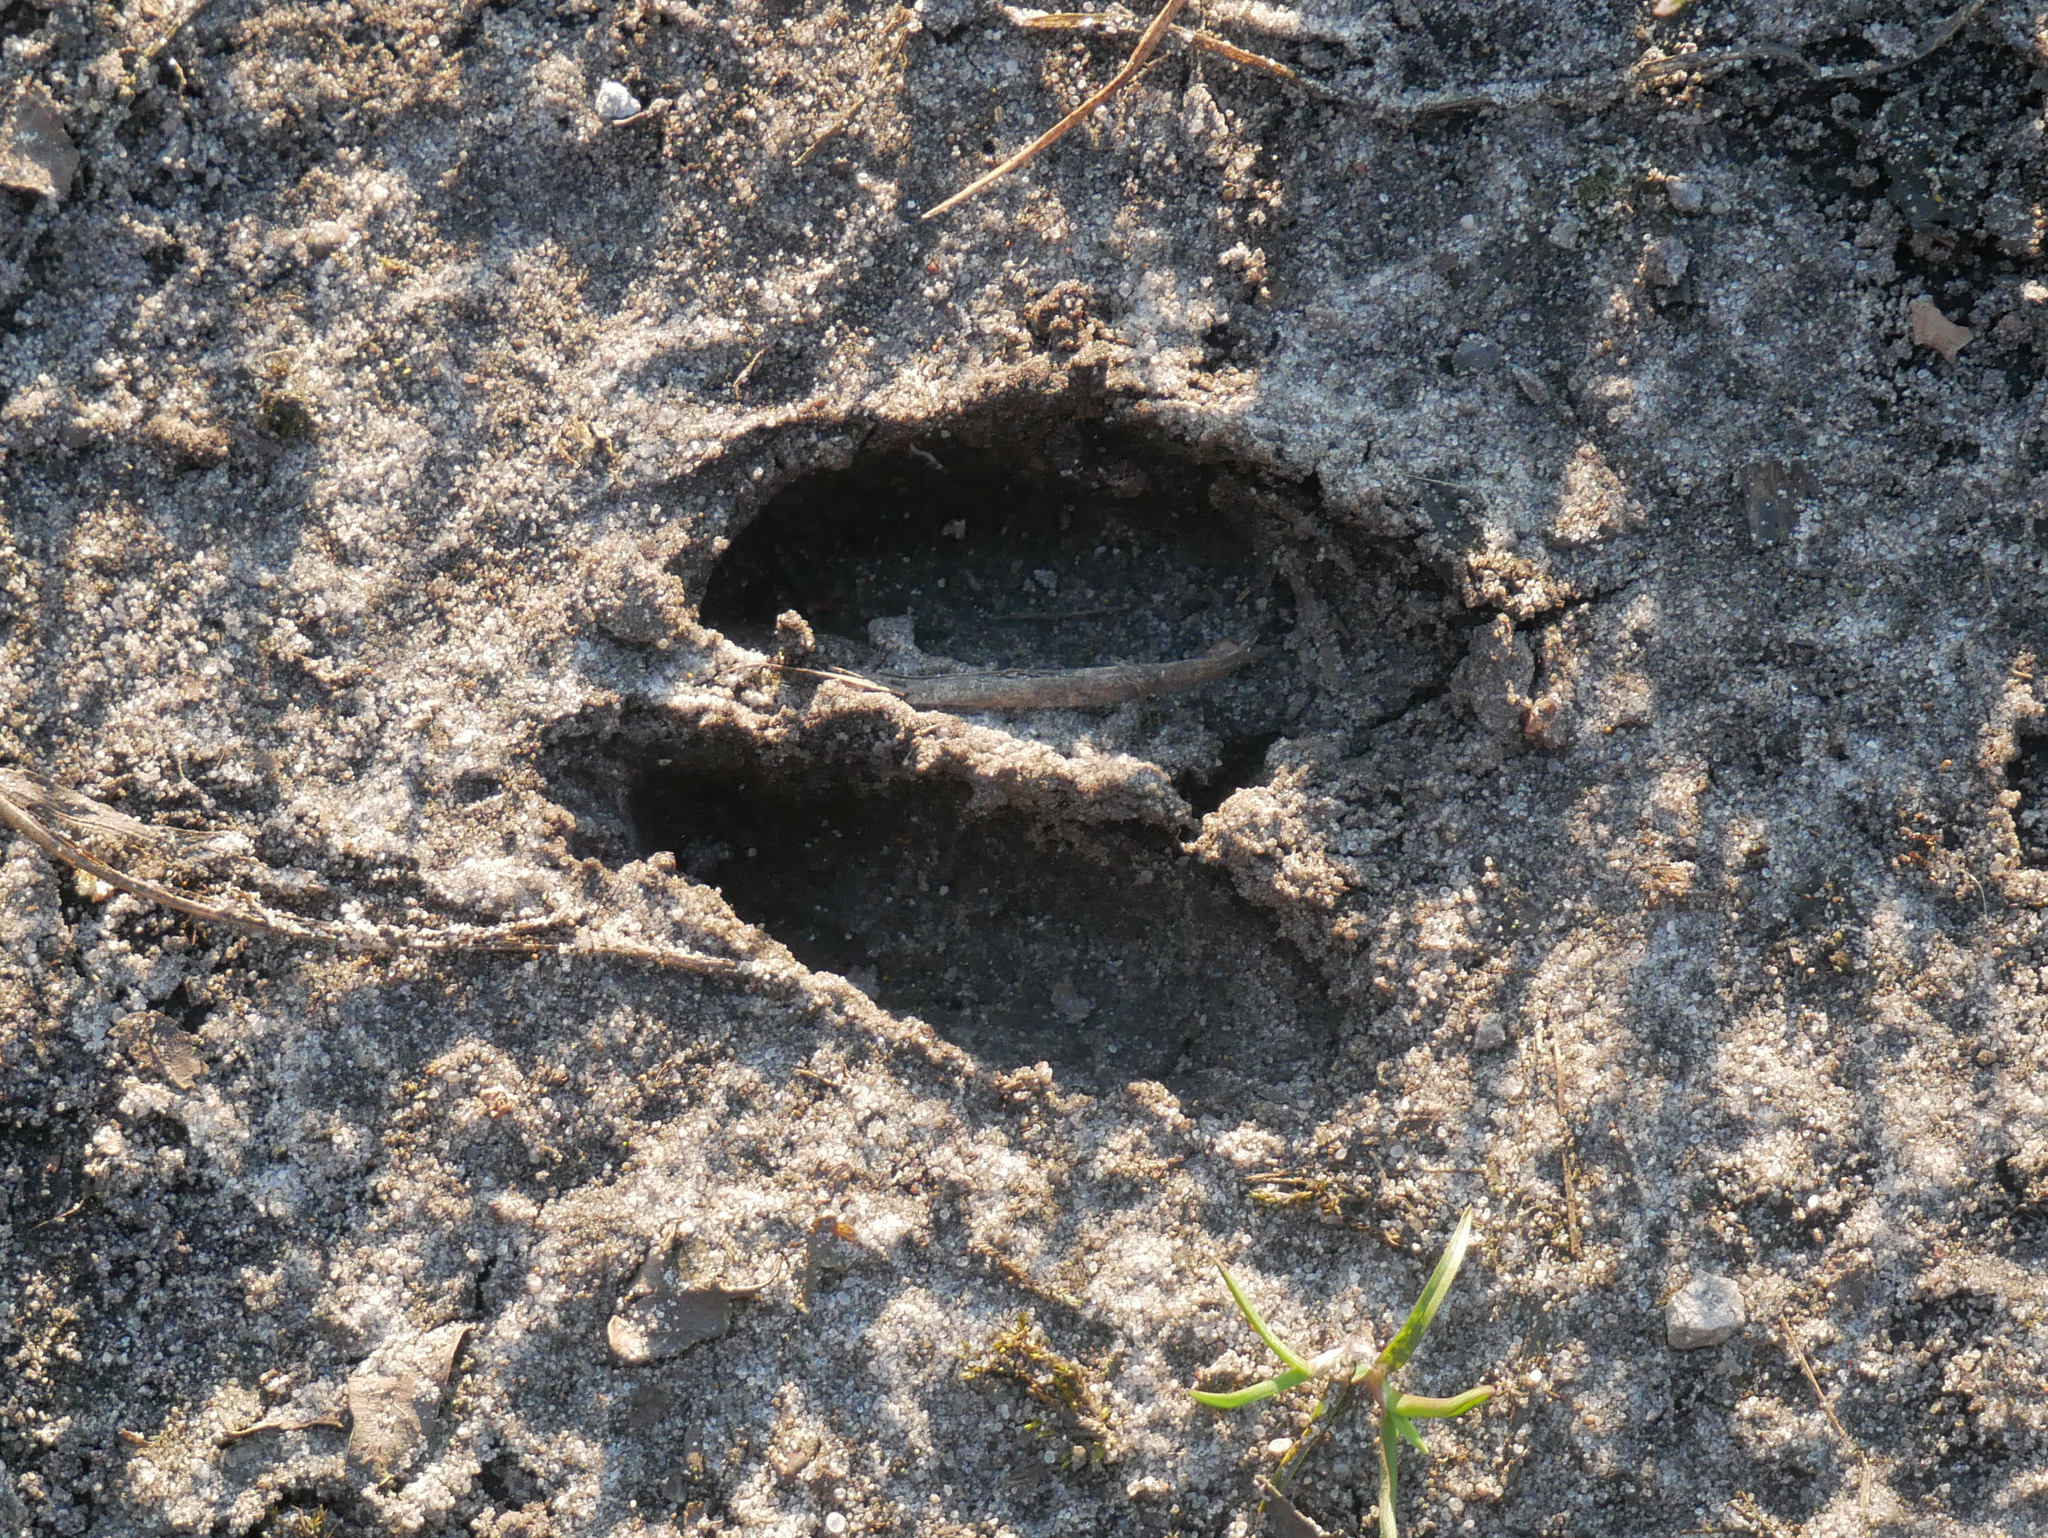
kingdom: Animalia
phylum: Chordata
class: Mammalia
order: Artiodactyla
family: Cervidae
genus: Capreolus
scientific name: Capreolus capreolus
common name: Western roe deer
